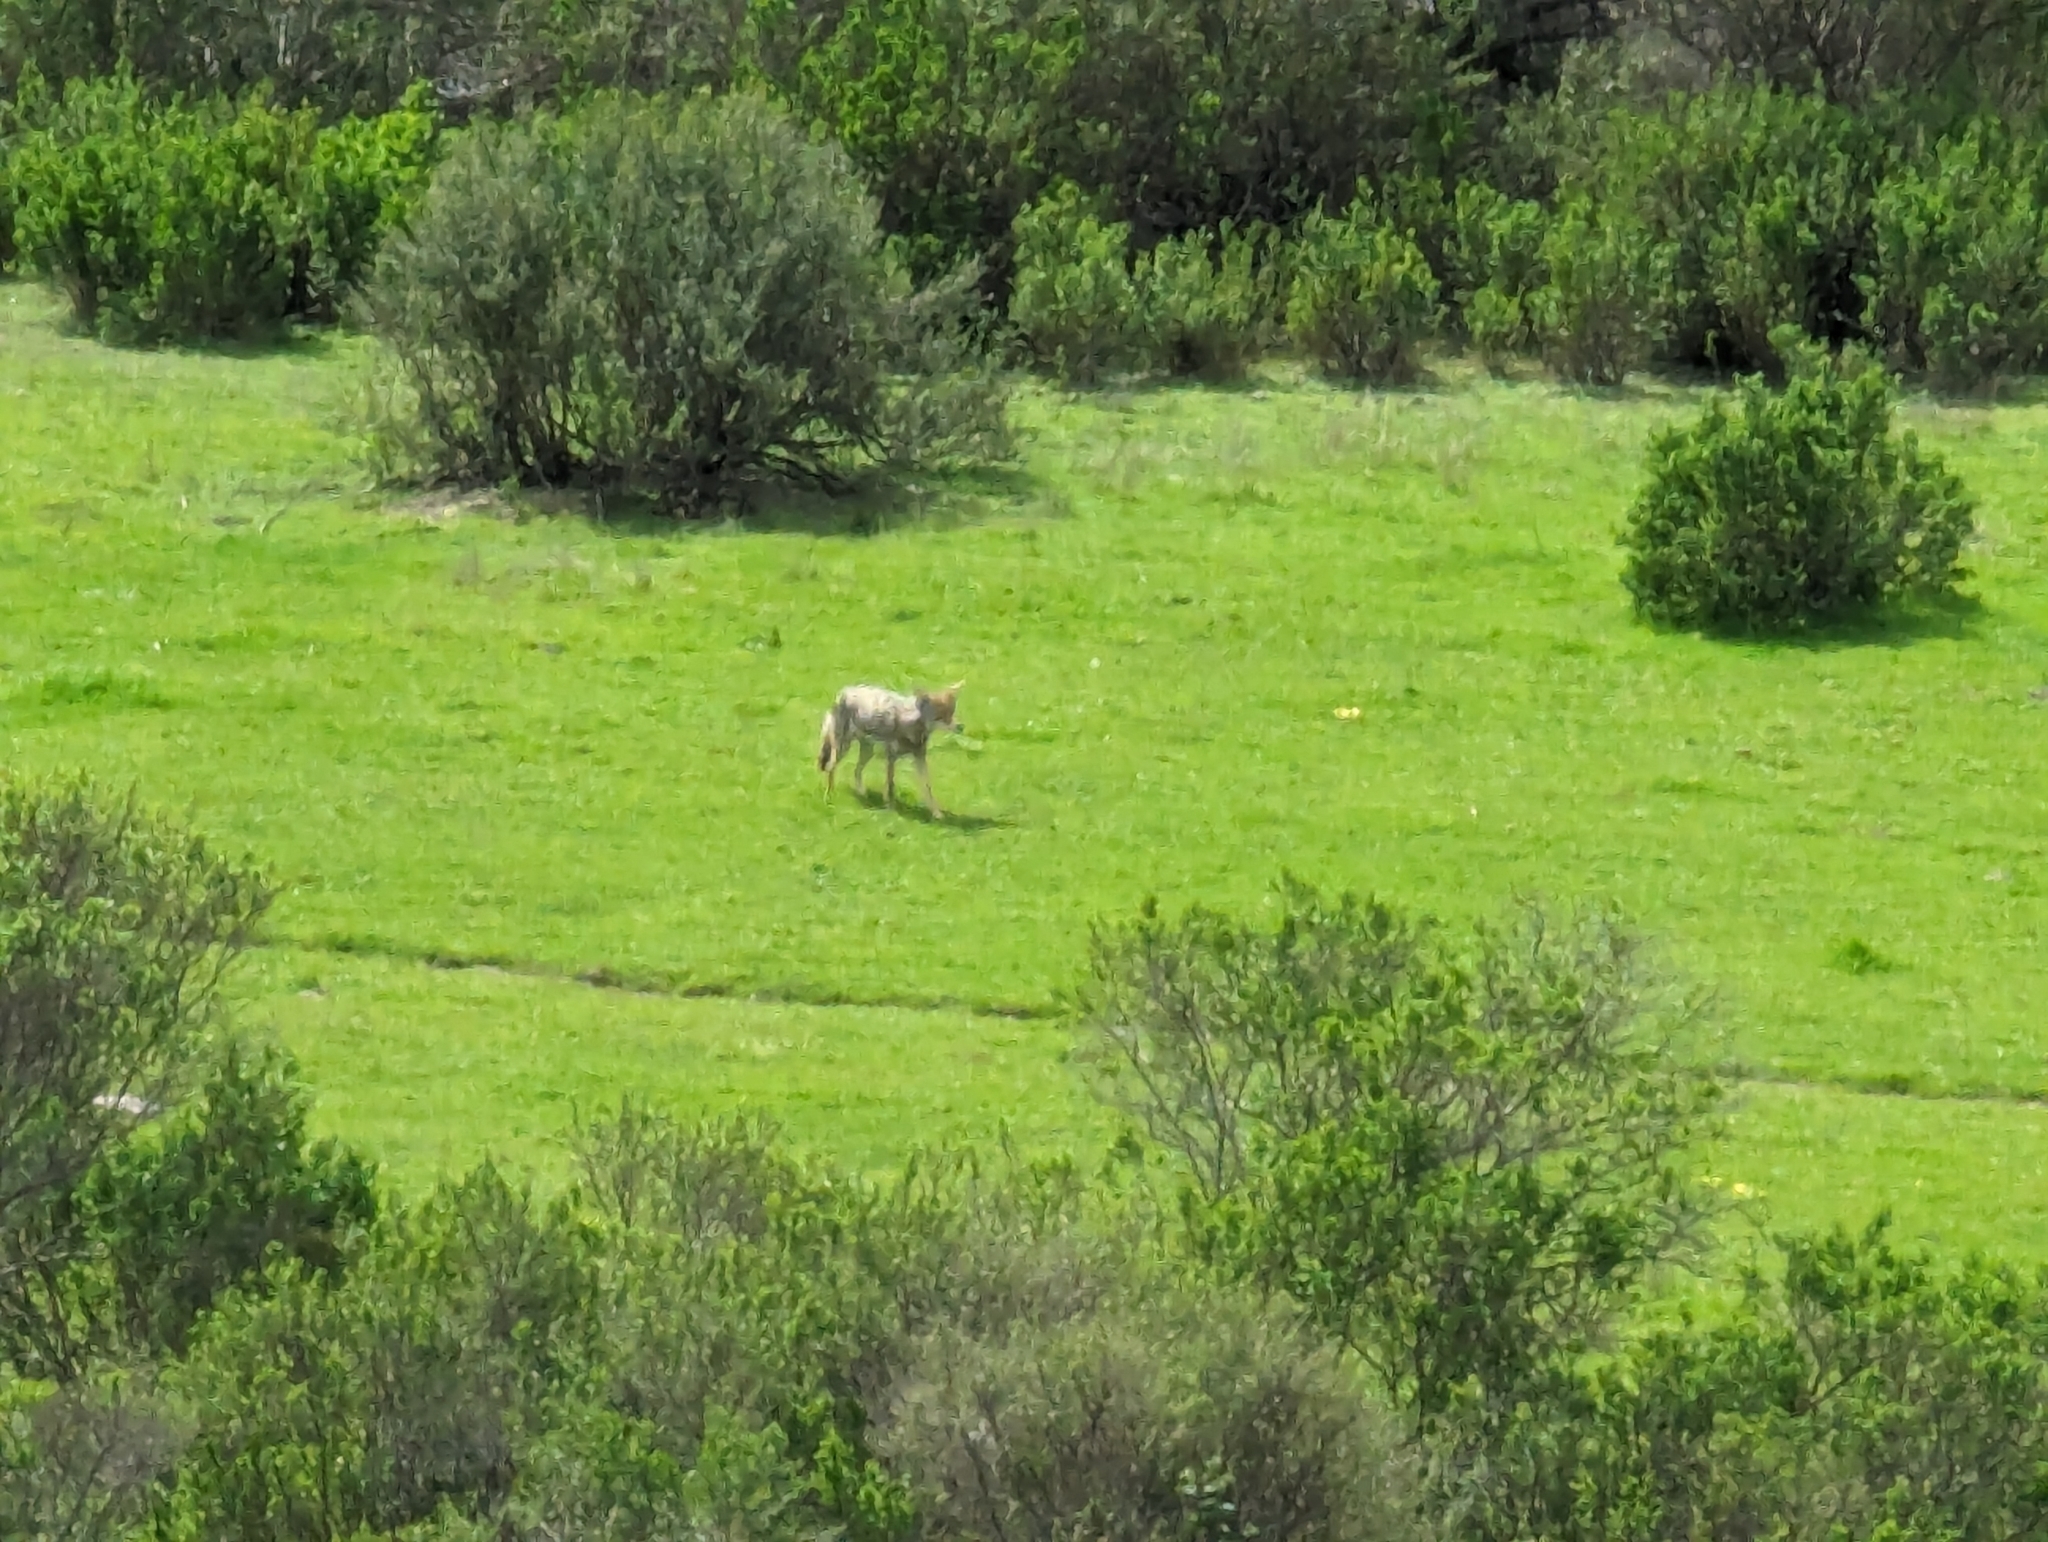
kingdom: Animalia
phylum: Chordata
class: Mammalia
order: Carnivora
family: Canidae
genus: Canis
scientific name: Canis latrans
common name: Coyote
